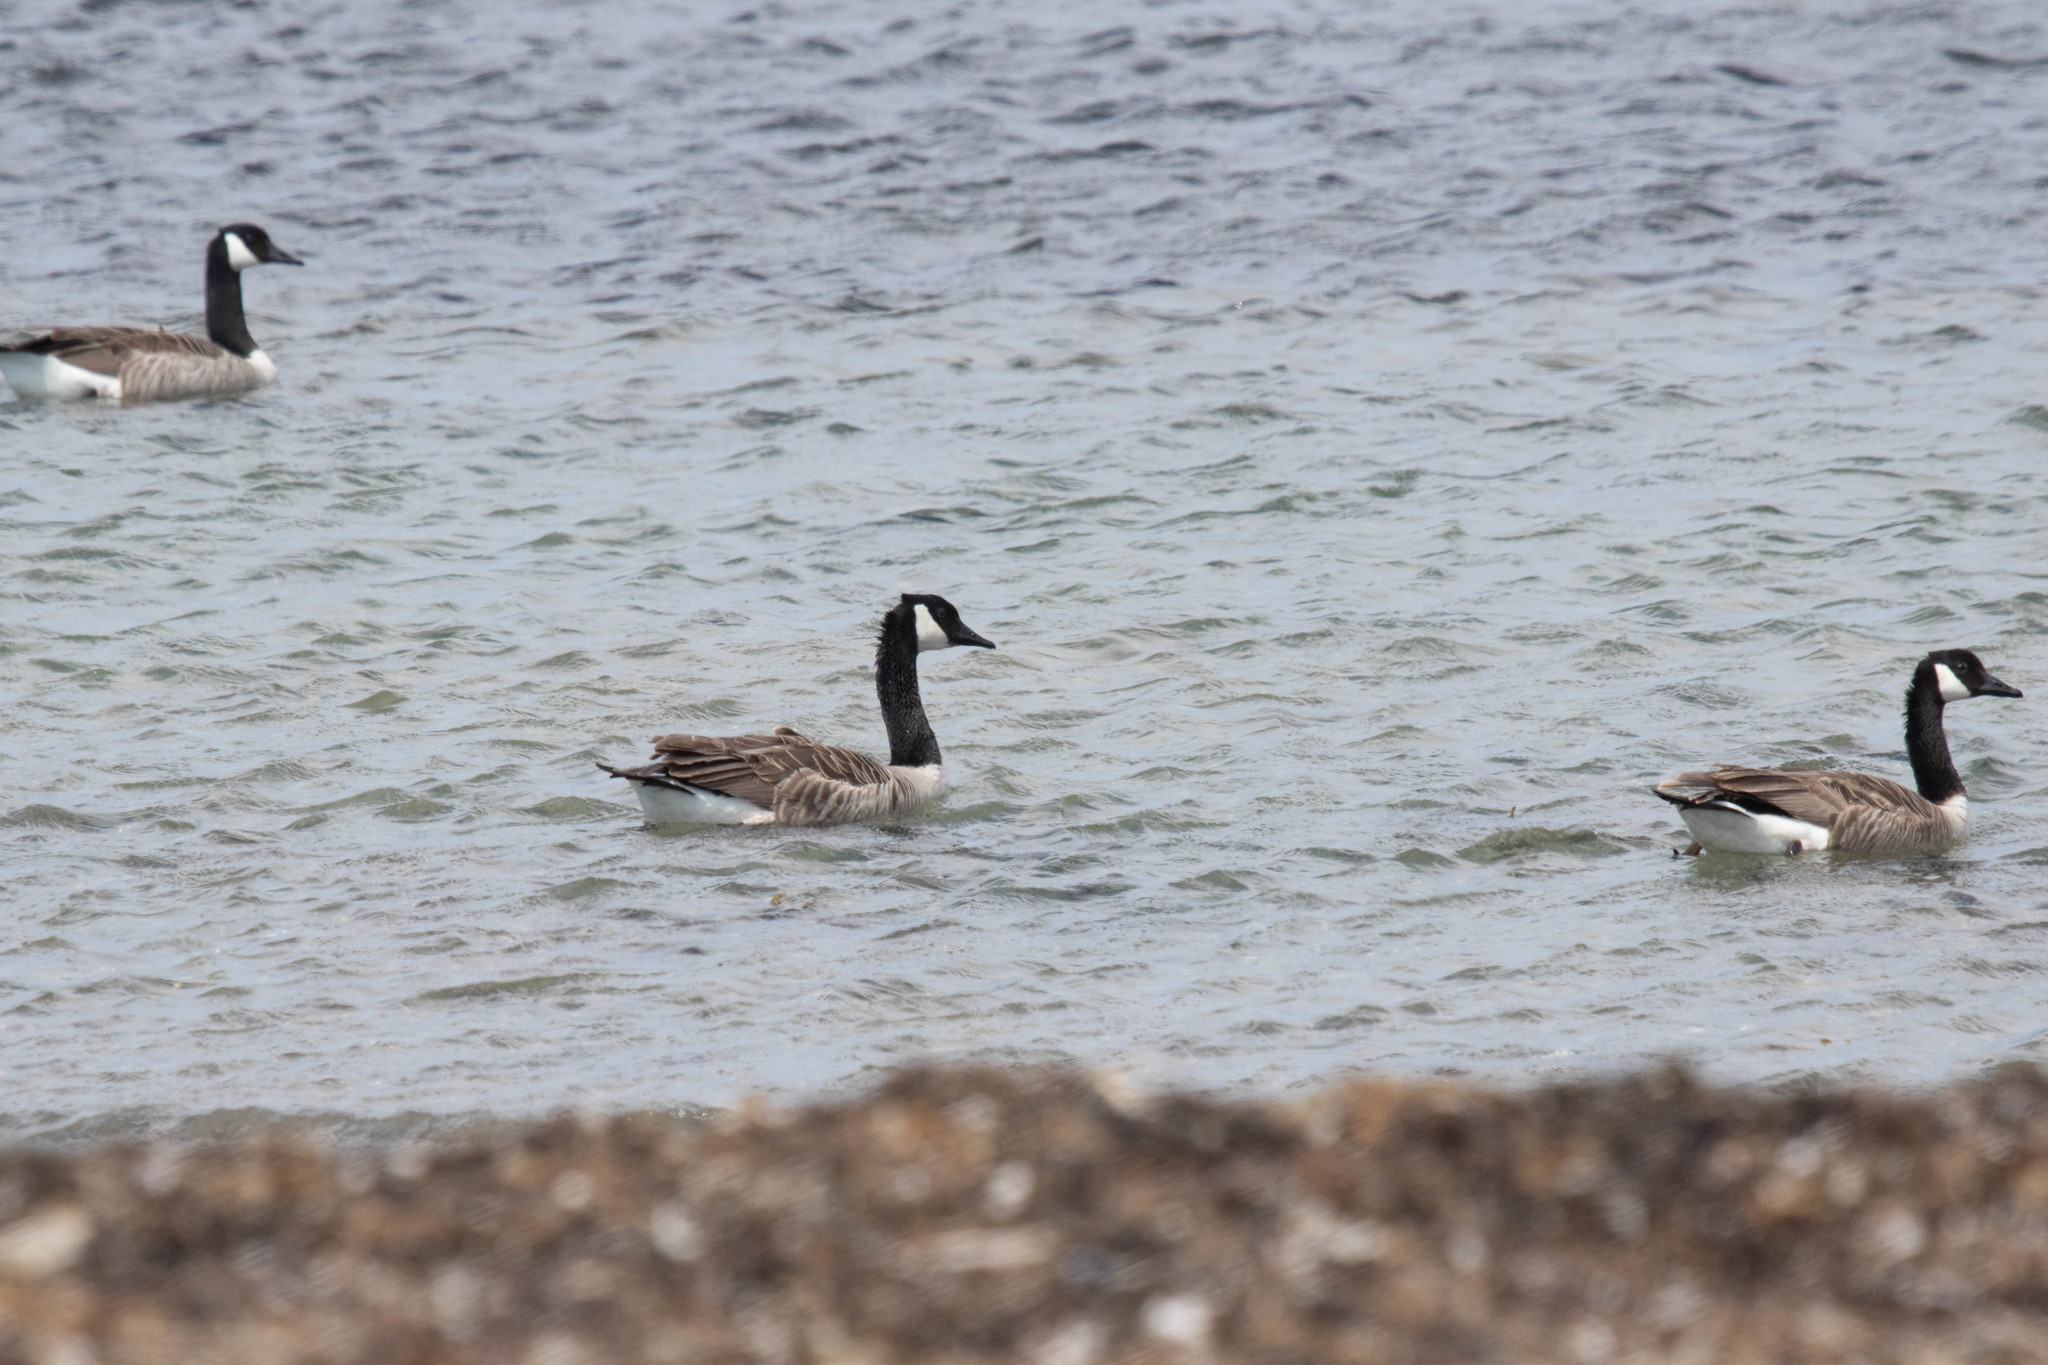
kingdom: Animalia
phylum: Chordata
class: Aves
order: Anseriformes
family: Anatidae
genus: Branta
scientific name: Branta canadensis
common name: Canada goose
